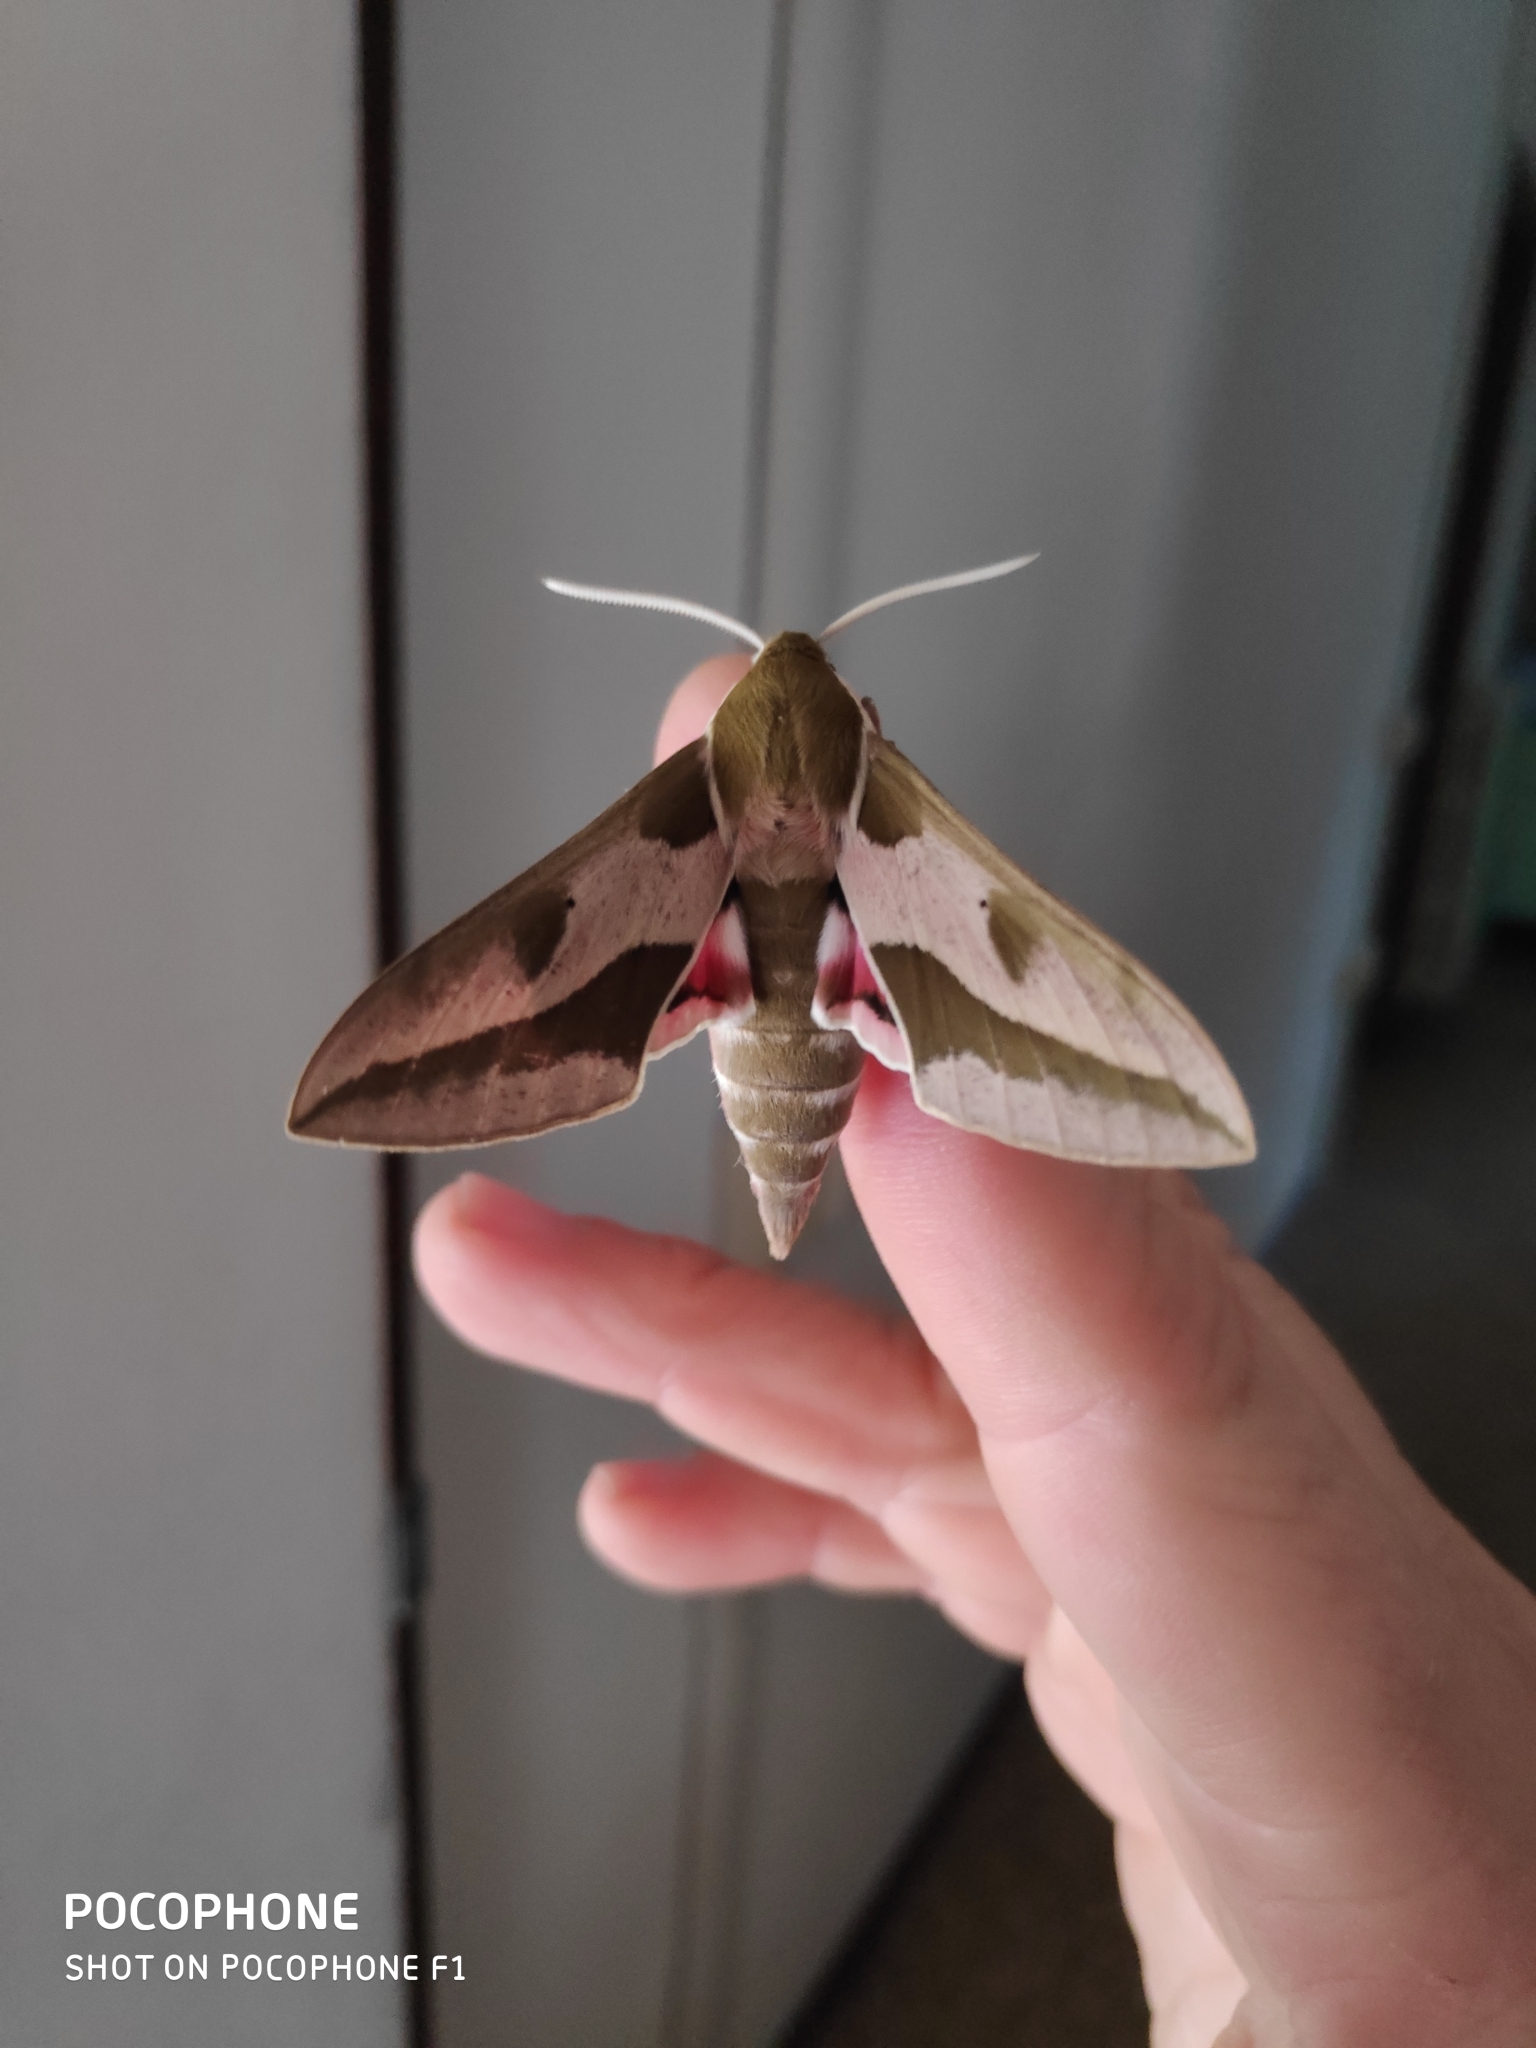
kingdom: Animalia
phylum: Arthropoda
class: Insecta
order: Lepidoptera
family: Sphingidae
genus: Hyles
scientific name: Hyles euphorbiae
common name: Spurge hawk-moth
